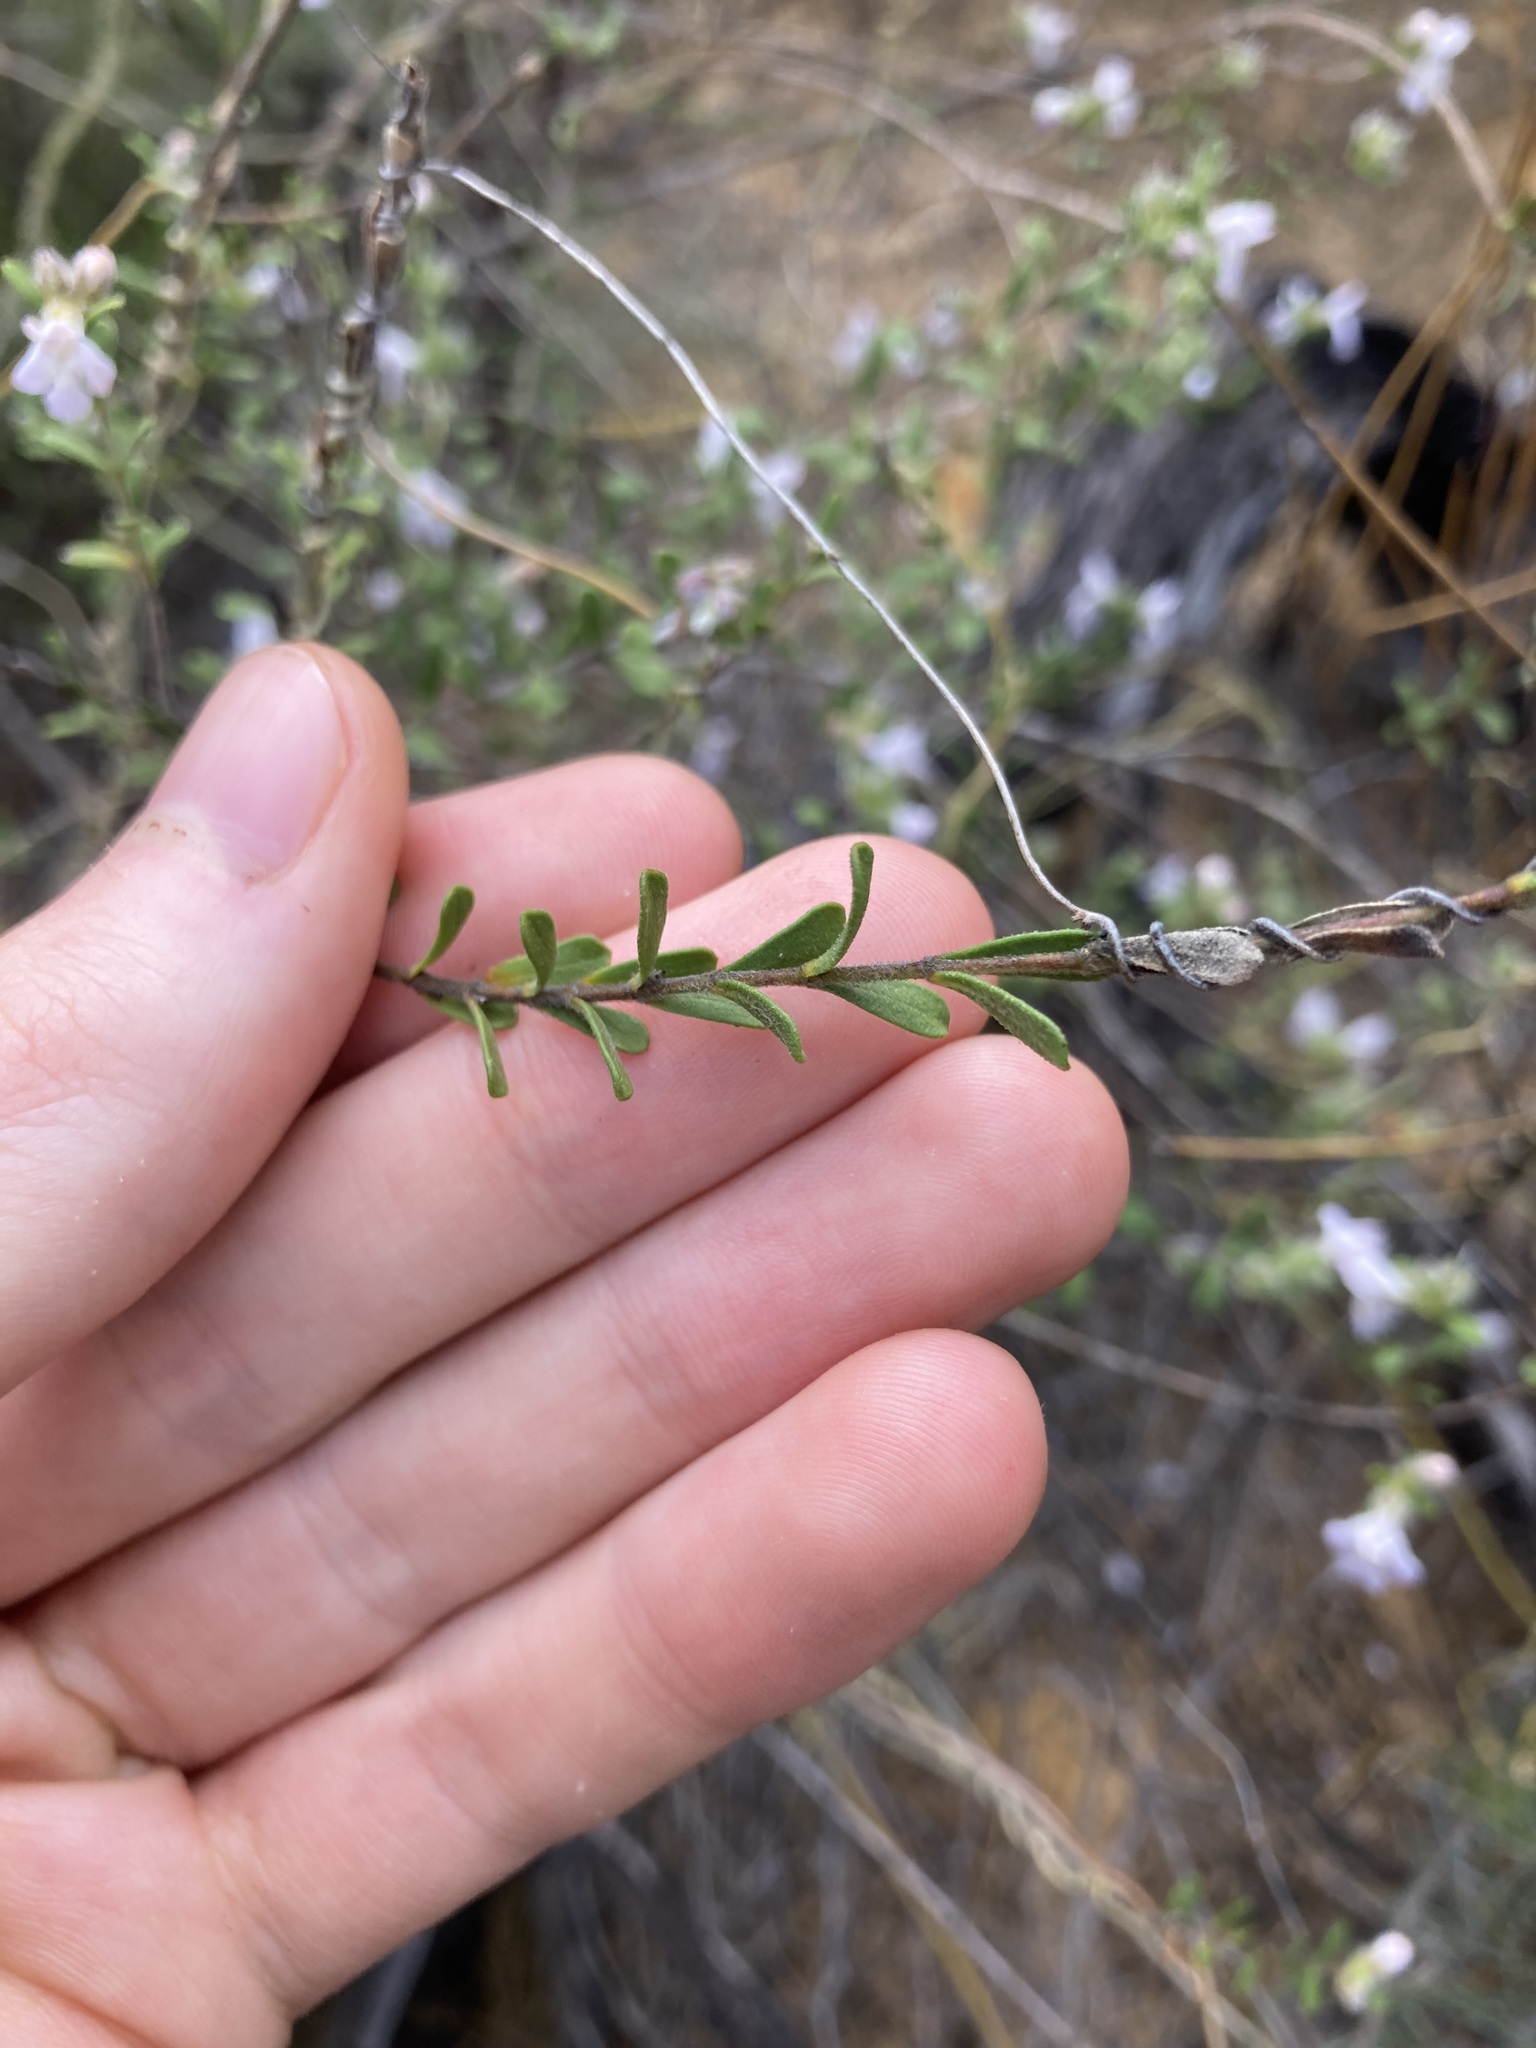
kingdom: Plantae
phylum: Tracheophyta
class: Magnoliopsida
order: Lamiales
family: Lamiaceae
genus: Hemigenia
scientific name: Hemigenia scabra
